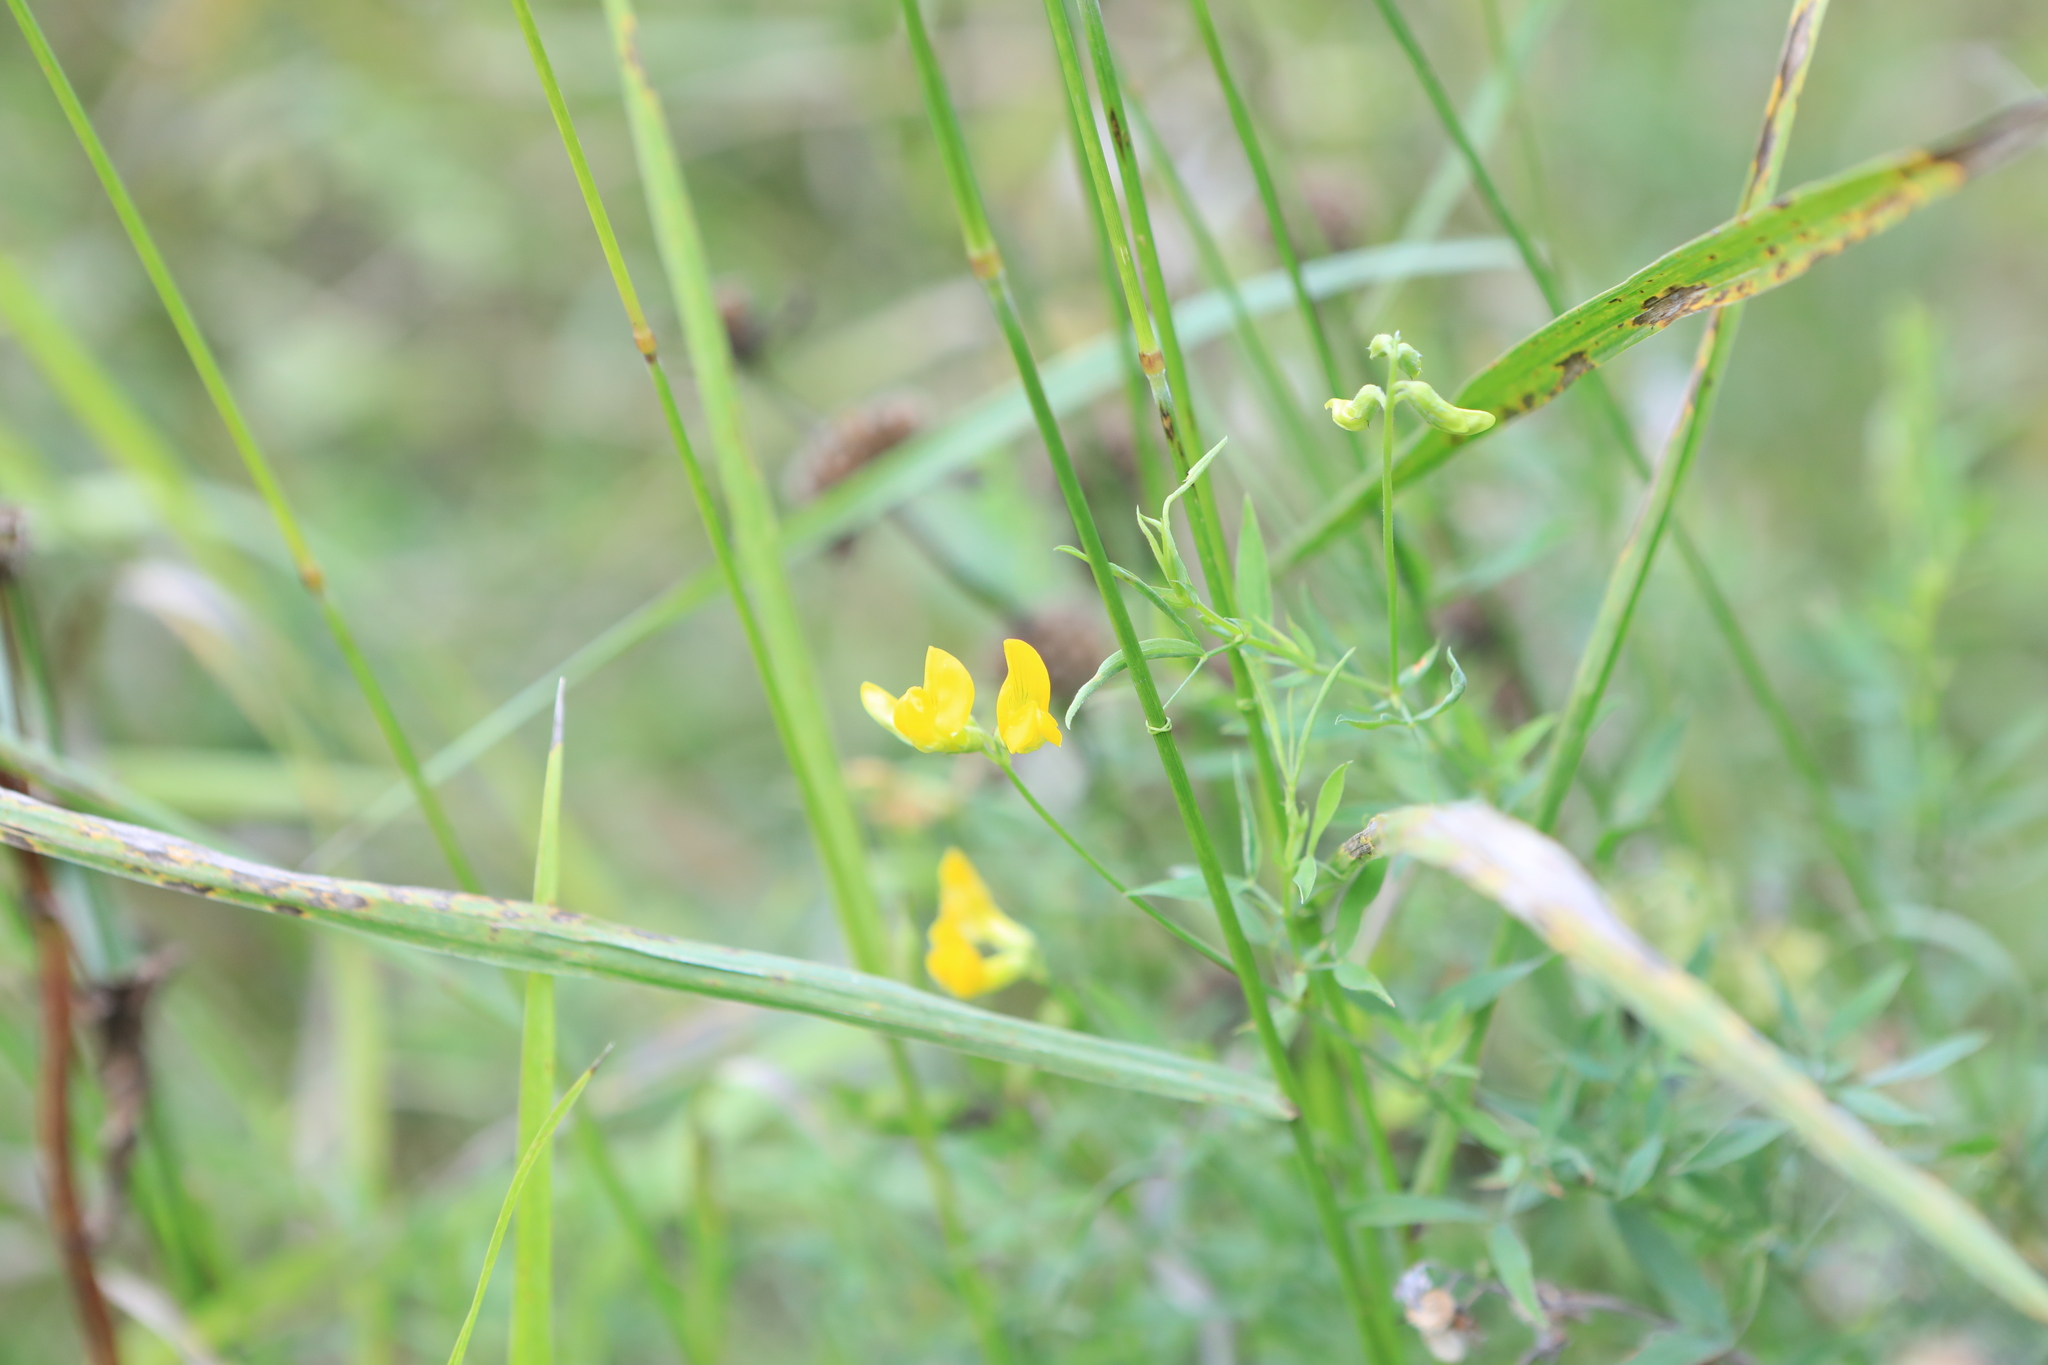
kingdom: Plantae
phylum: Tracheophyta
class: Magnoliopsida
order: Fabales
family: Fabaceae
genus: Lathyrus
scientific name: Lathyrus pratensis
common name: Meadow vetchling
